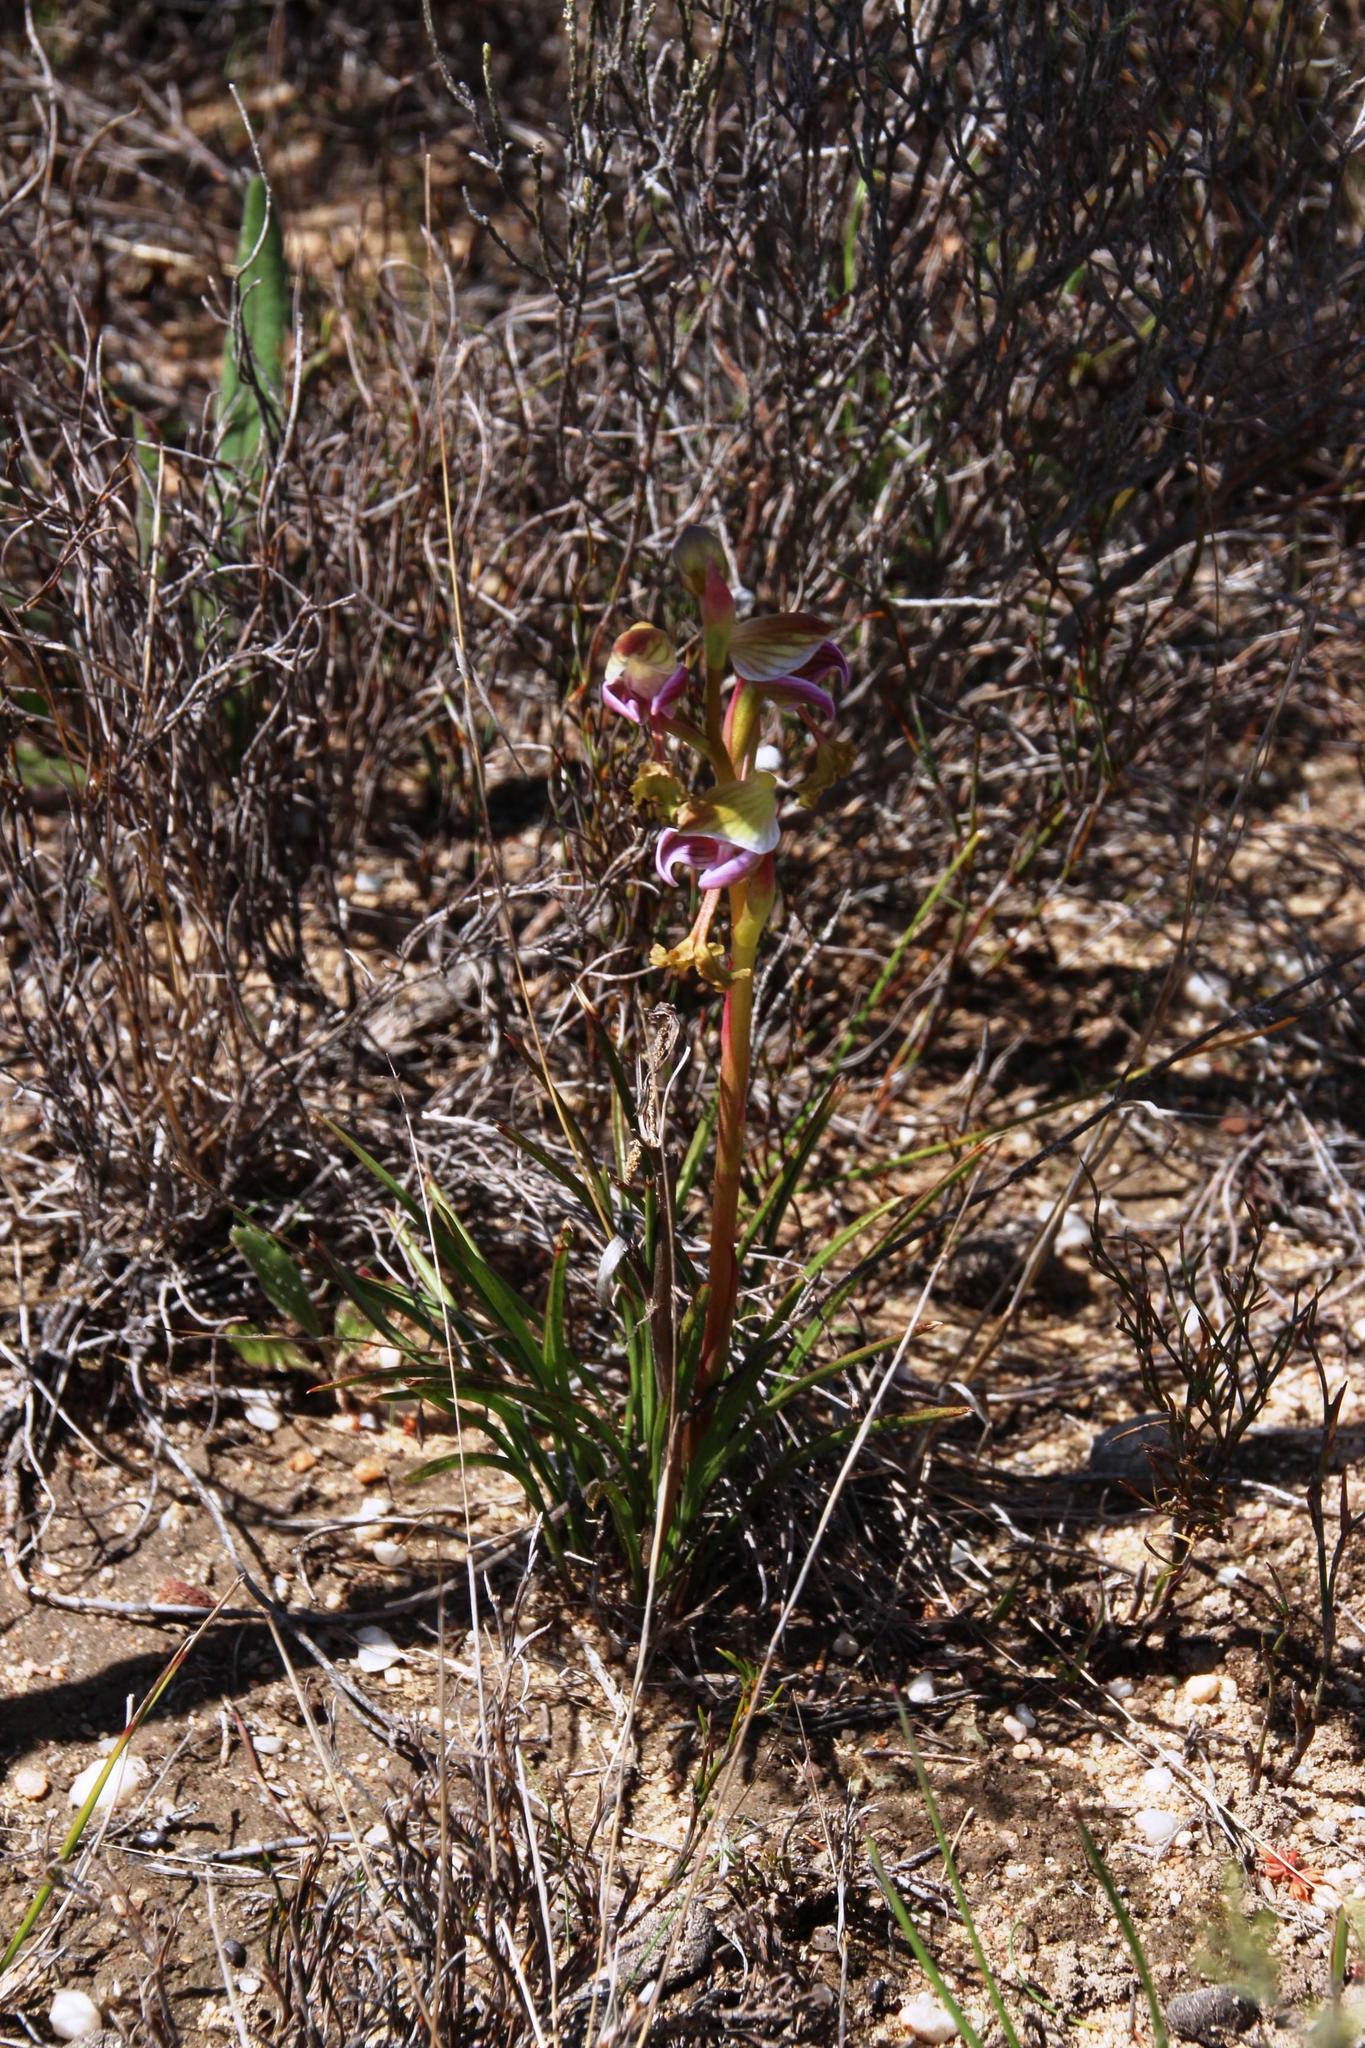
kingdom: Plantae
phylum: Tracheophyta
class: Liliopsida
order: Asparagales
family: Orchidaceae
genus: Disa
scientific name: Disa spathulata
